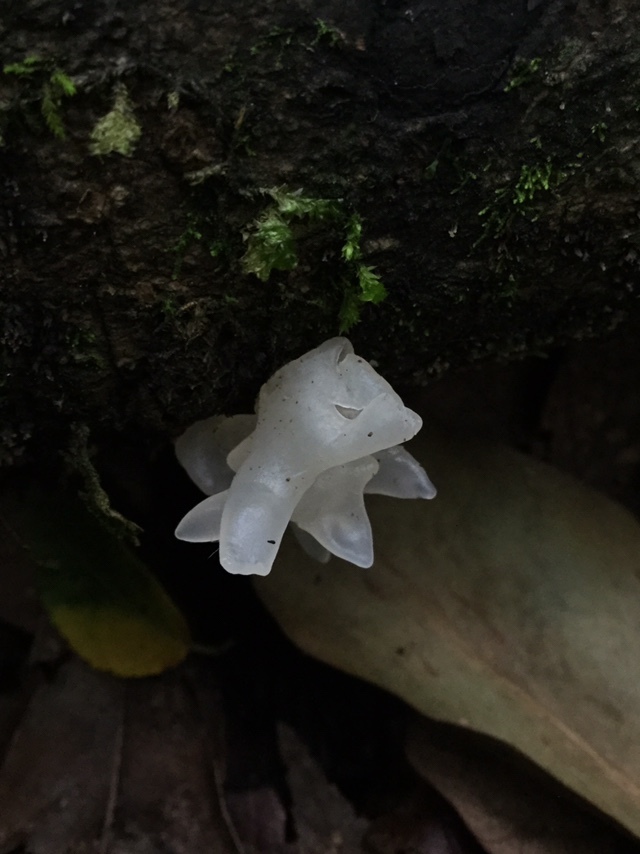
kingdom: Fungi
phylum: Basidiomycota
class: Tremellomycetes
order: Tremellales
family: Tremellaceae
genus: Tremella
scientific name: Tremella fuciformis
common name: Snow fungus
